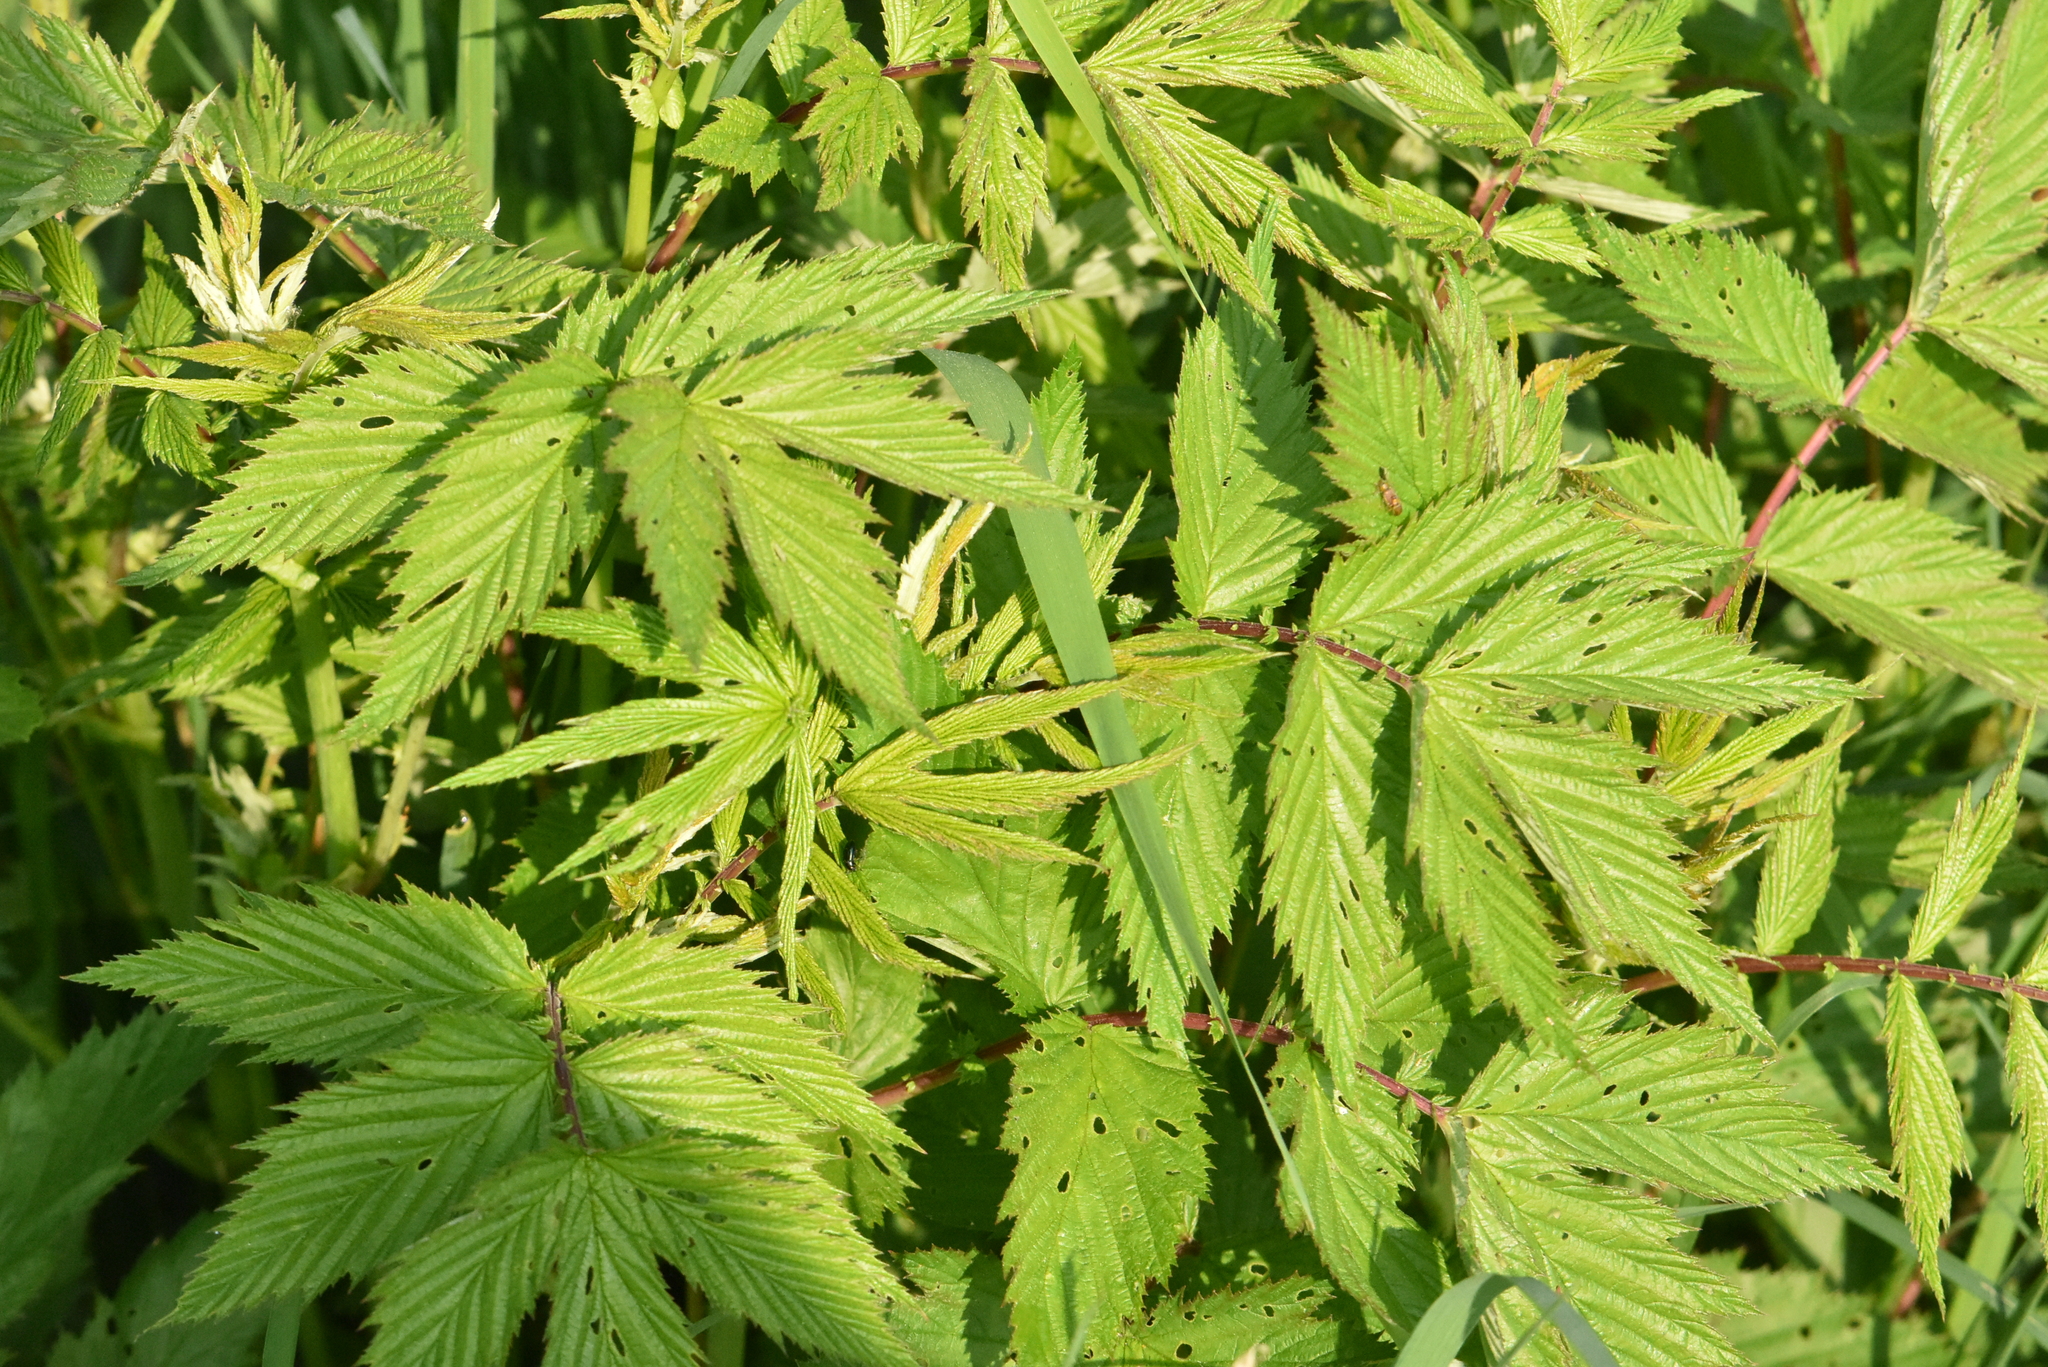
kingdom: Plantae
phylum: Tracheophyta
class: Magnoliopsida
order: Rosales
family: Rosaceae
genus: Filipendula
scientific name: Filipendula ulmaria
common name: Meadowsweet
